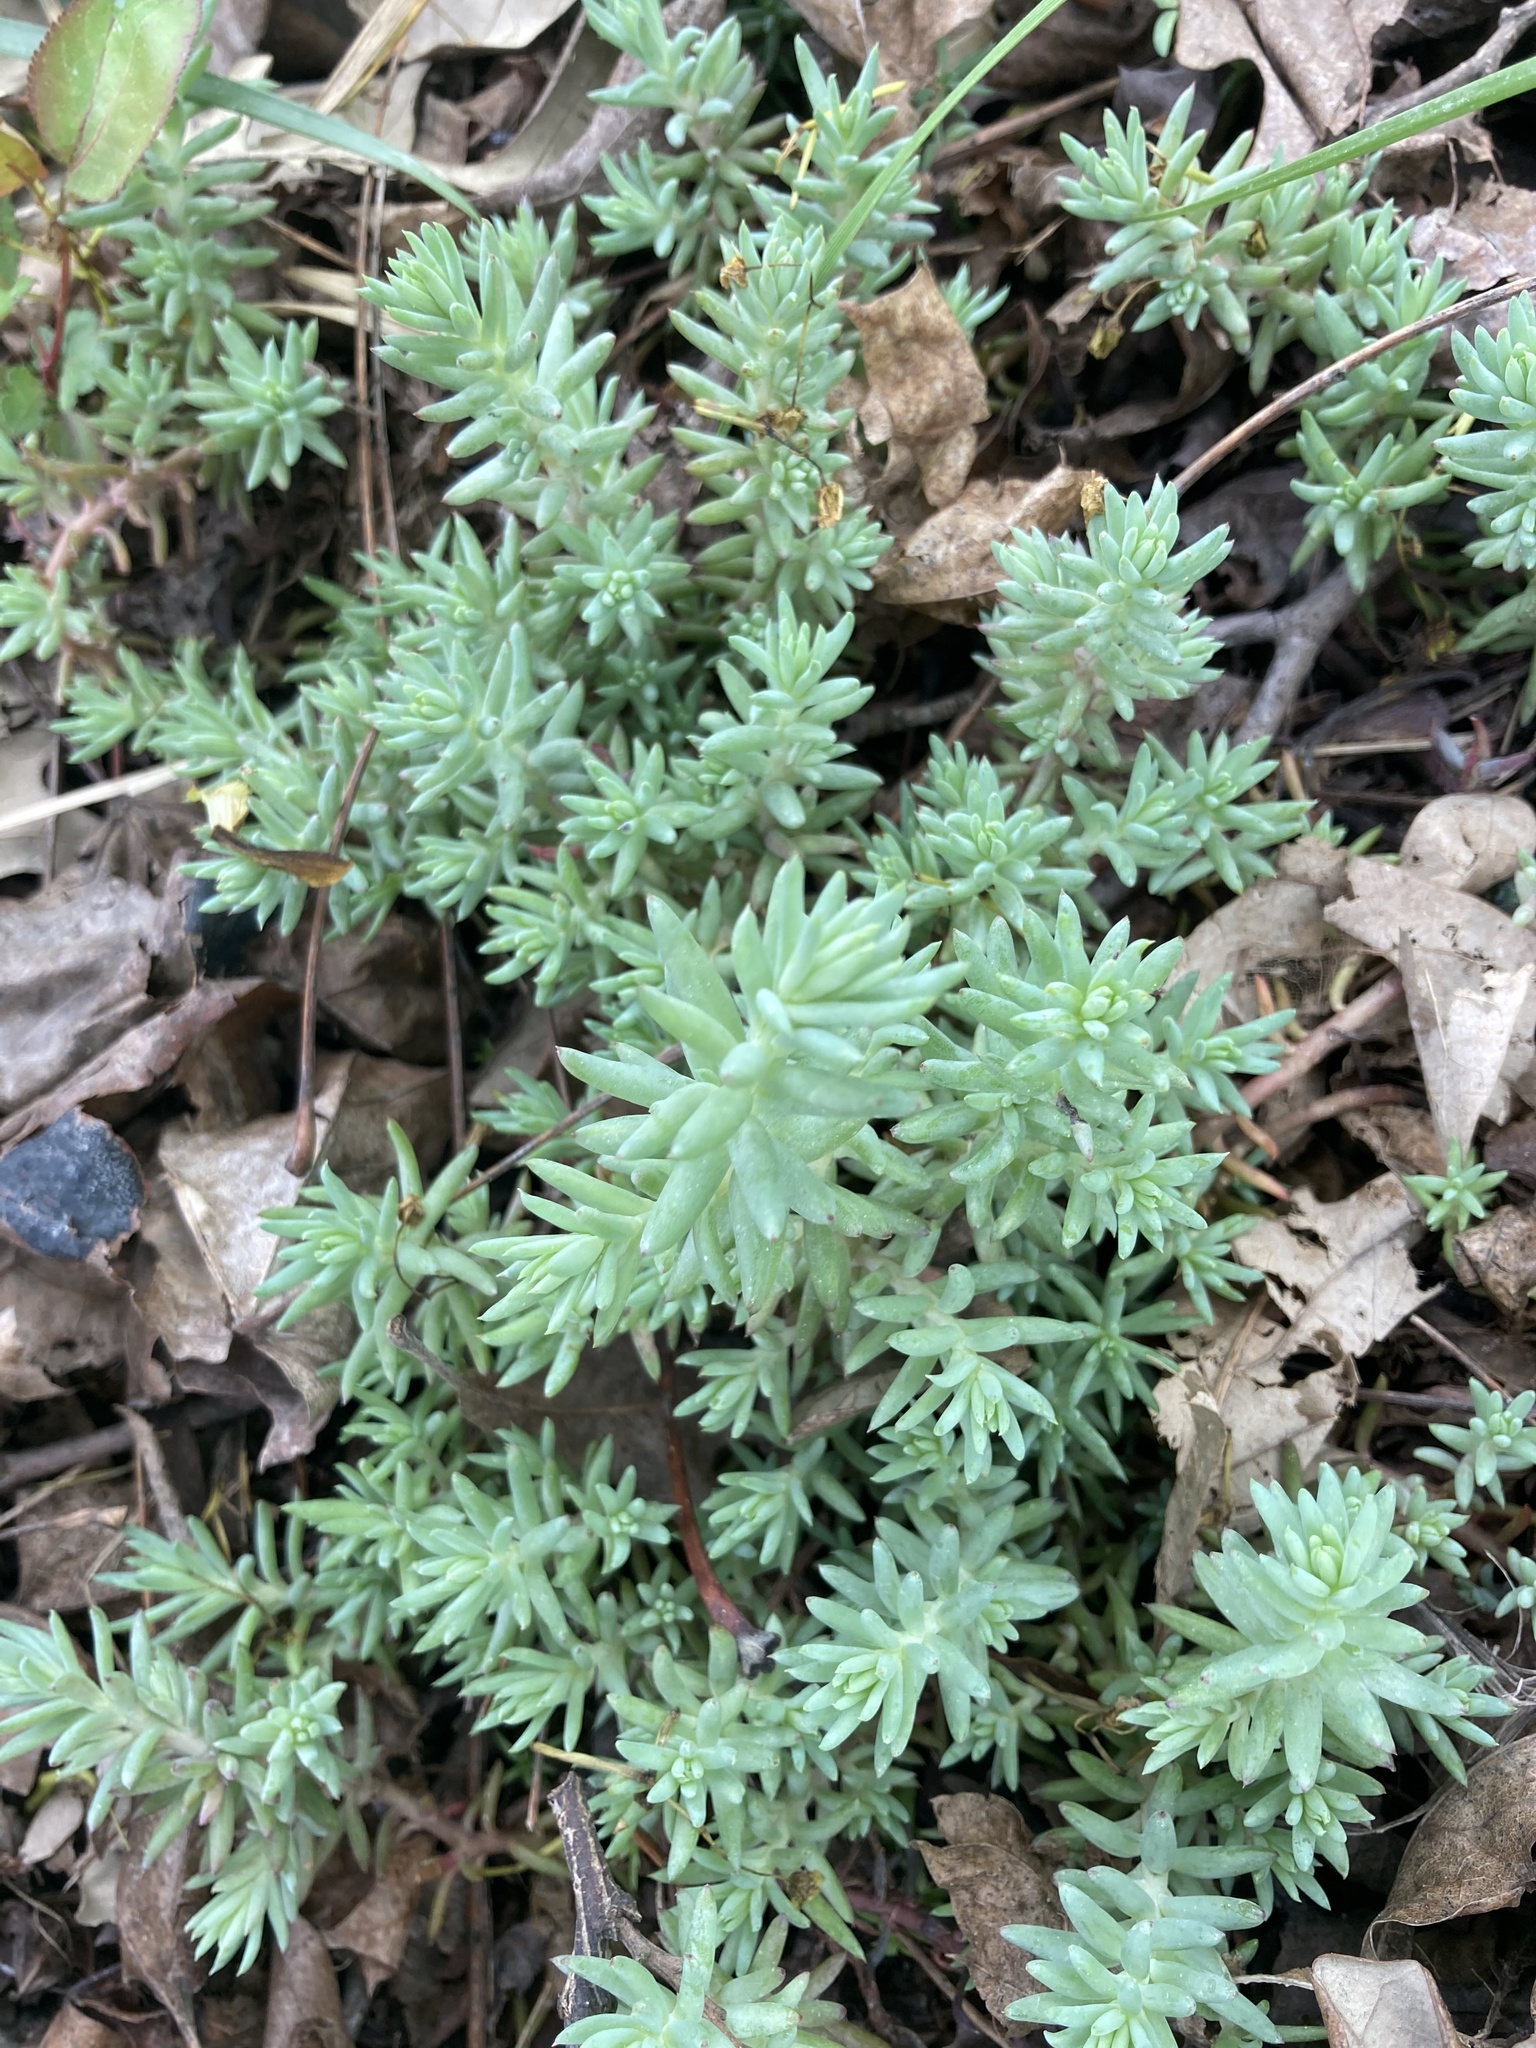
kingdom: Plantae
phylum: Tracheophyta
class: Magnoliopsida
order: Saxifragales
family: Crassulaceae
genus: Petrosedum
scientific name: Petrosedum rupestre
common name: Jenny's stonecrop
